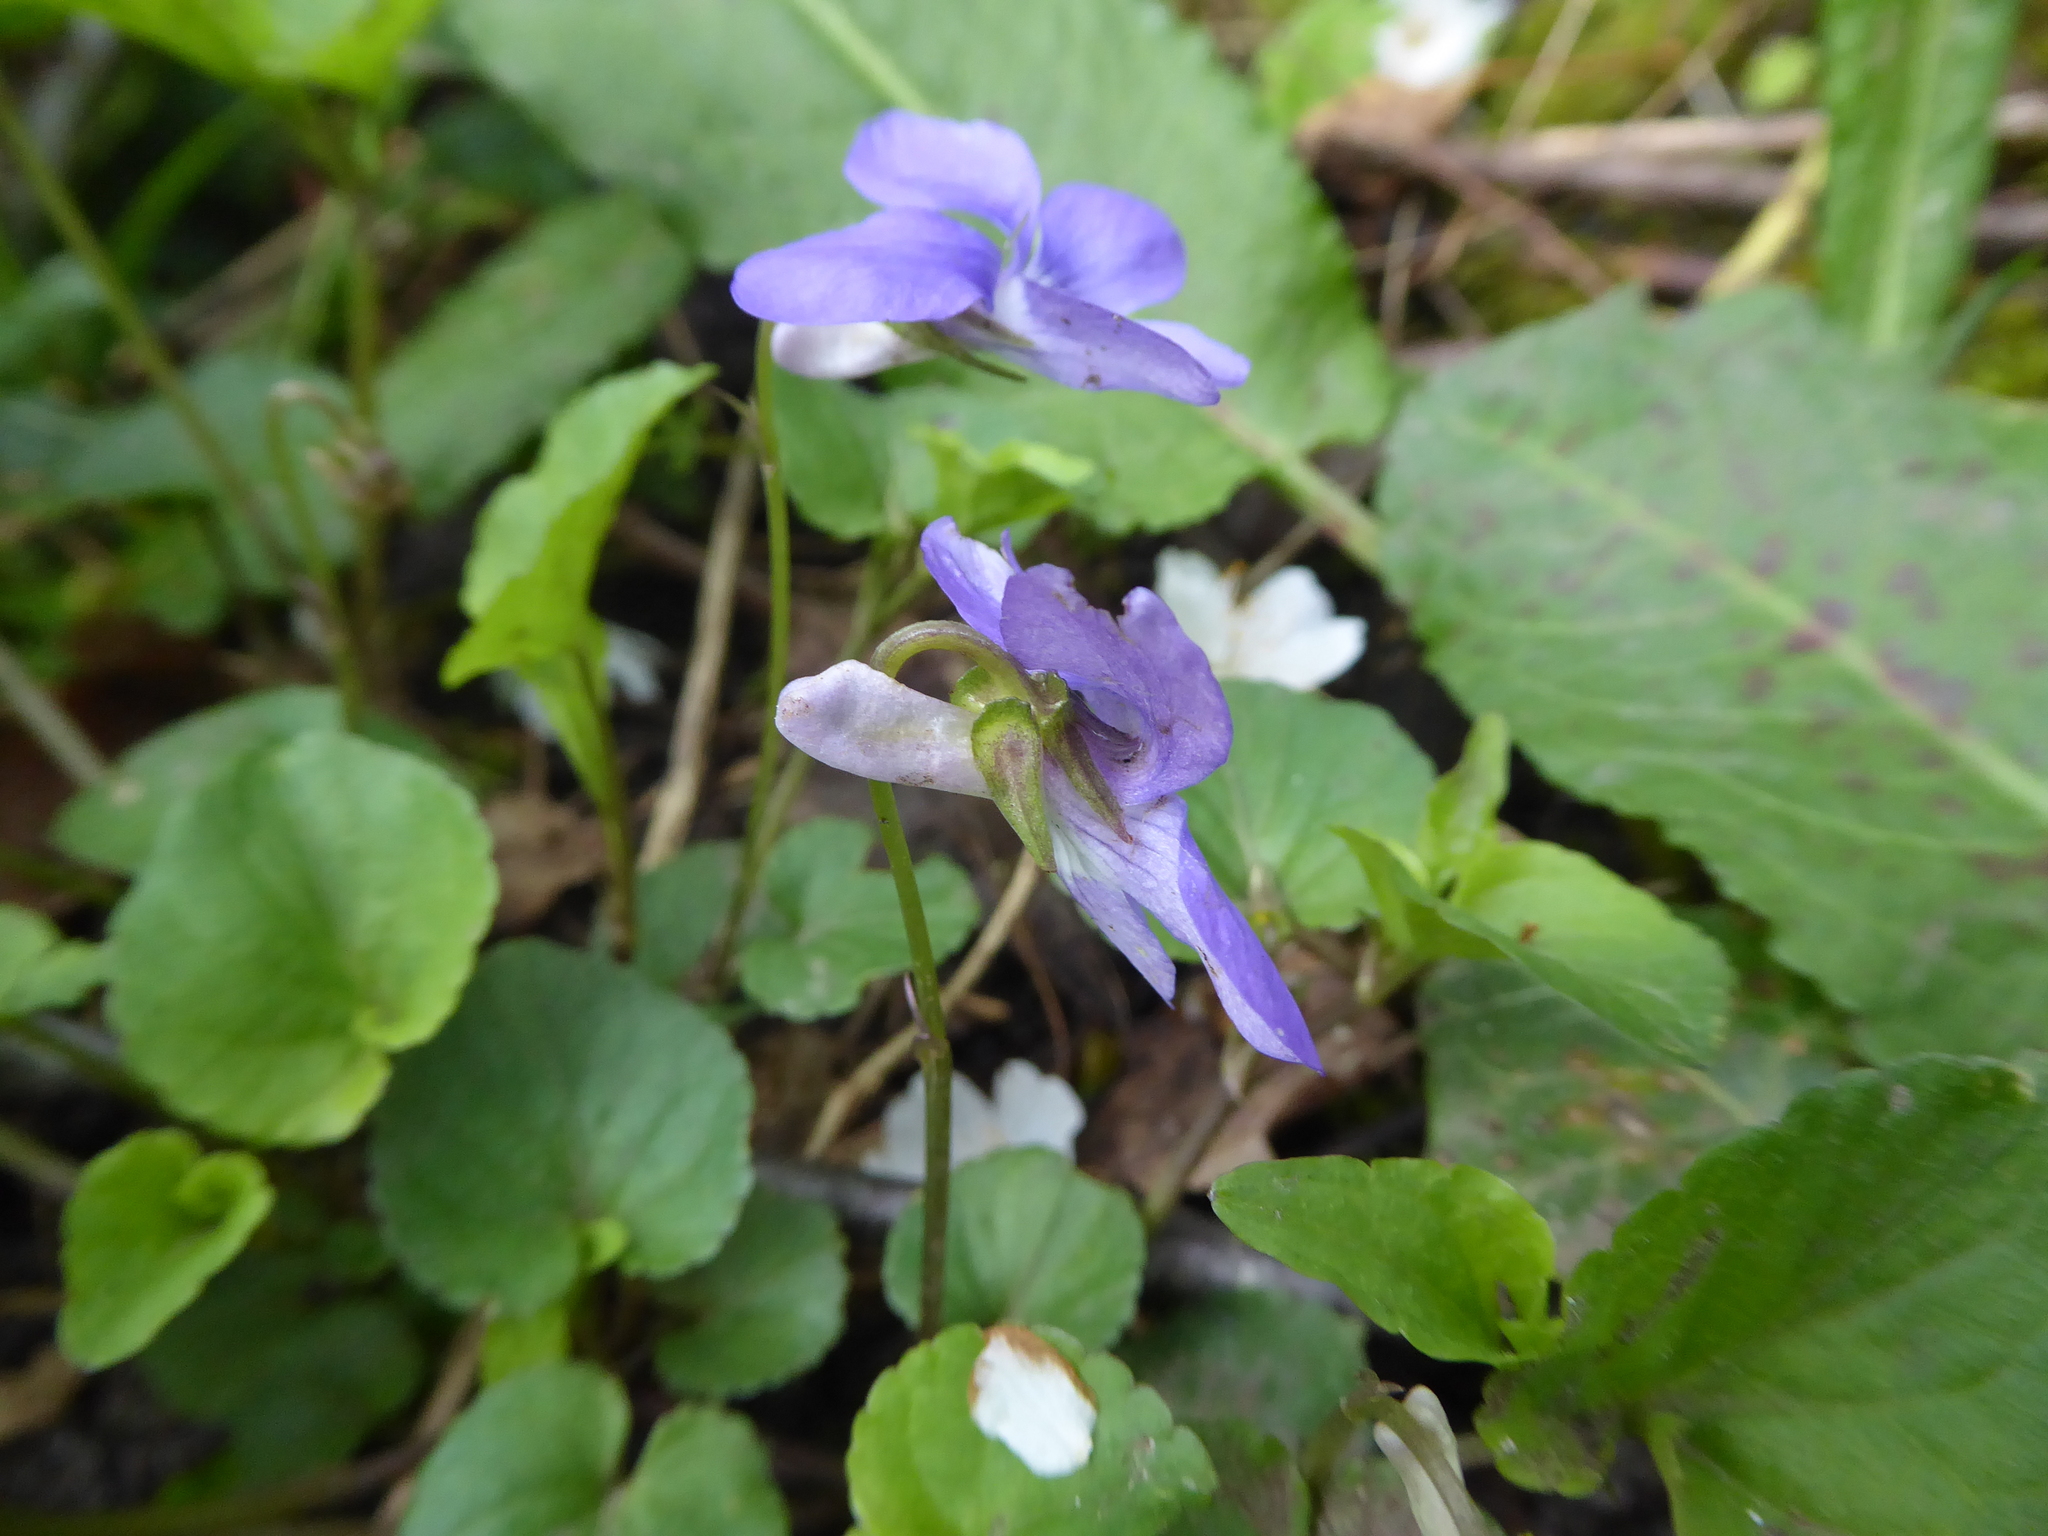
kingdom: Plantae
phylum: Tracheophyta
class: Magnoliopsida
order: Malpighiales
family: Violaceae
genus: Viola
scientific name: Viola riviniana
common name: Common dog-violet
